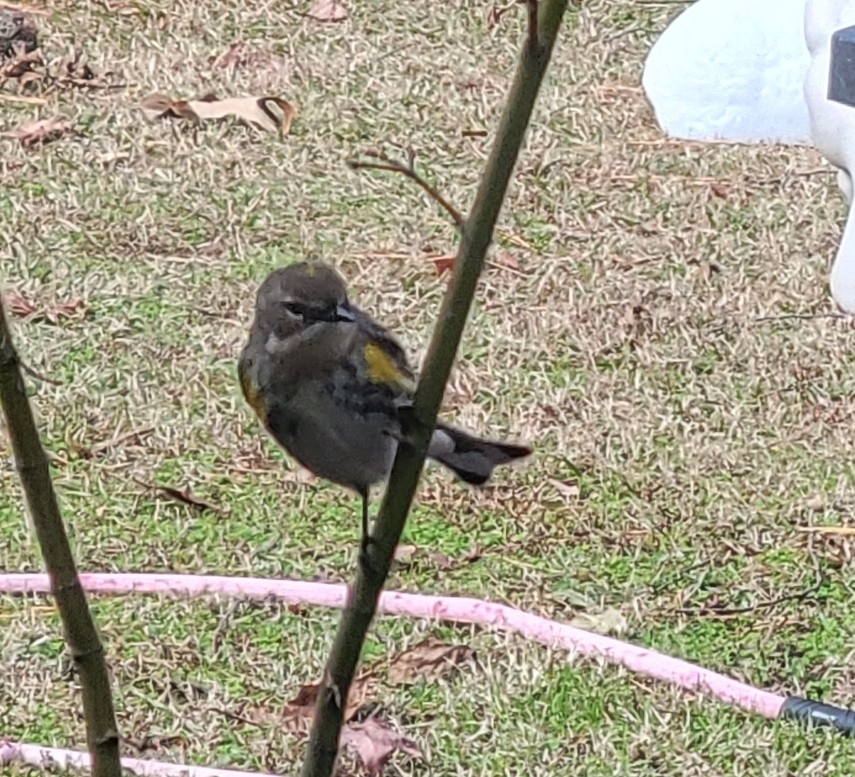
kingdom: Animalia
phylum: Chordata
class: Aves
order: Passeriformes
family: Parulidae
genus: Setophaga
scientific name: Setophaga coronata
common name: Myrtle warbler
